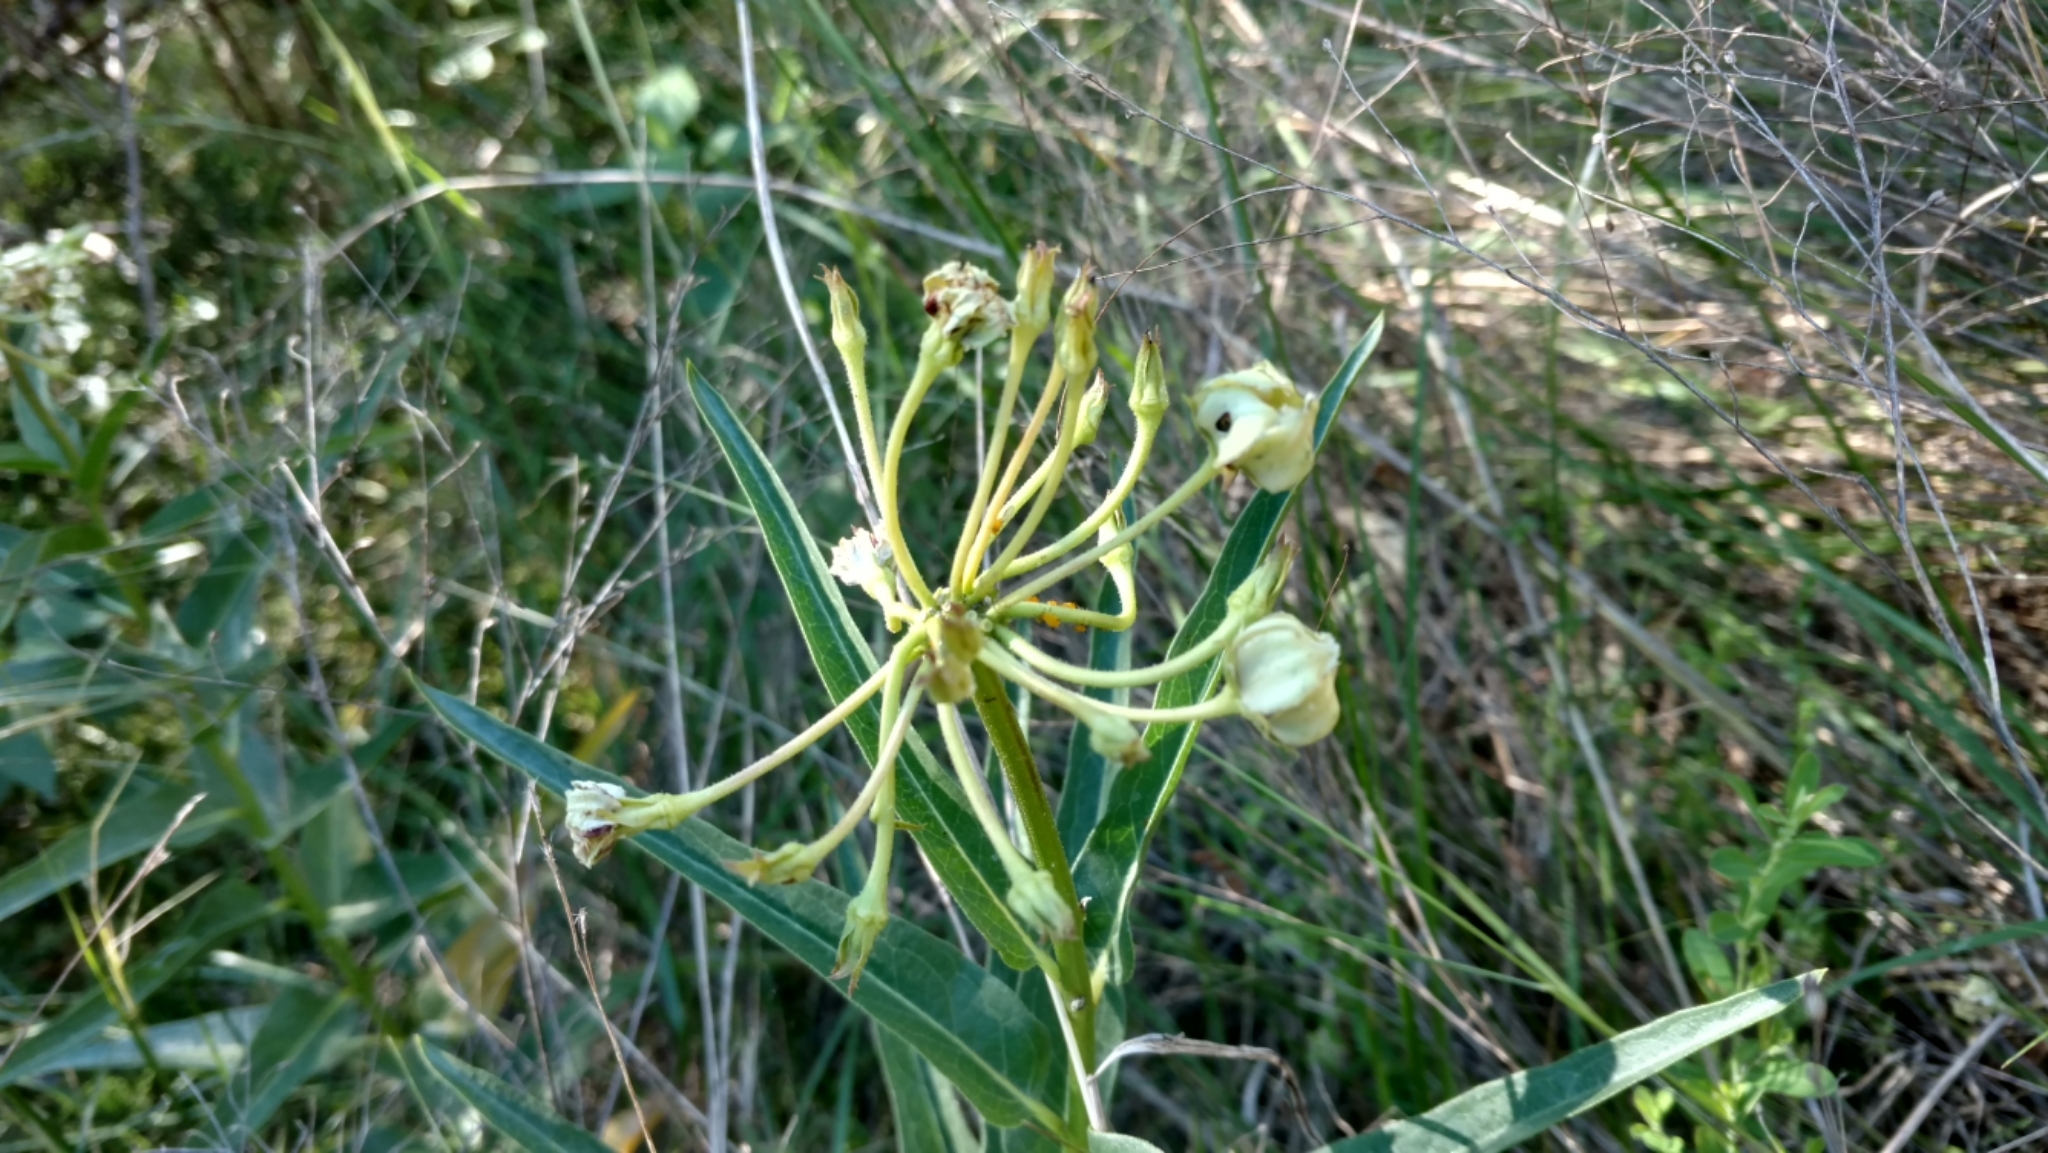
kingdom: Plantae
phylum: Tracheophyta
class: Magnoliopsida
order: Gentianales
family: Apocynaceae
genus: Asclepias
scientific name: Asclepias asperula
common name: Antelope horns
